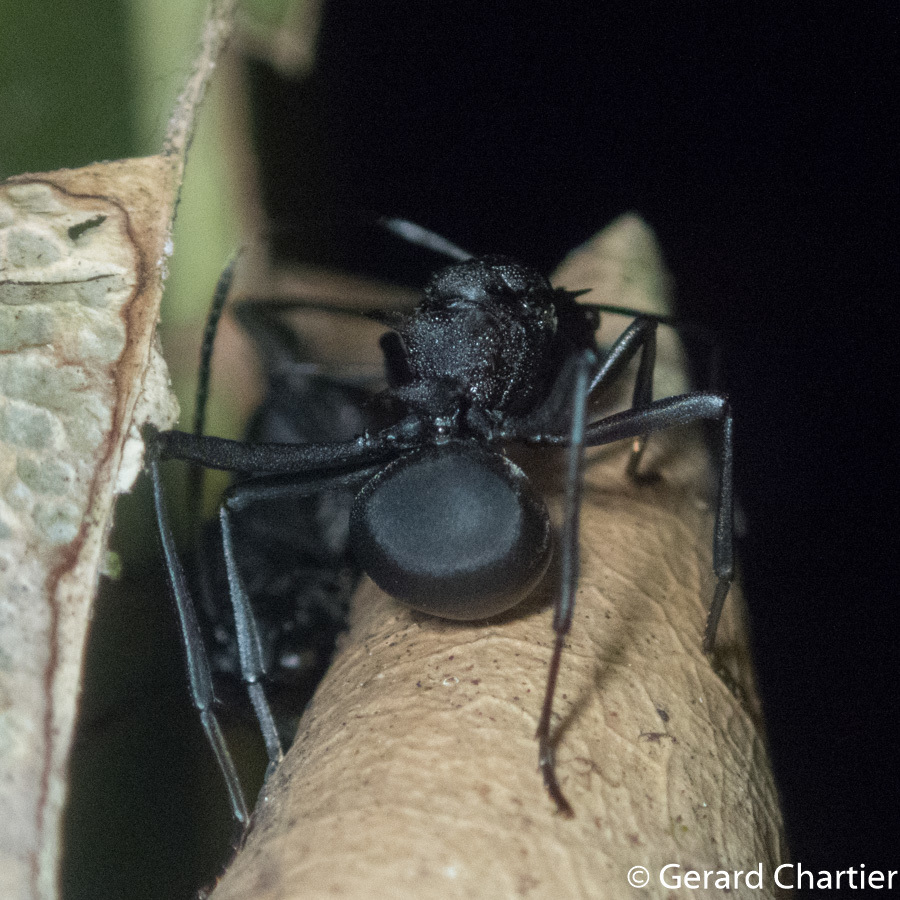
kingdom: Animalia
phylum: Arthropoda
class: Insecta
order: Hymenoptera
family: Formicidae
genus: Polyrhachis
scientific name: Polyrhachis armata
